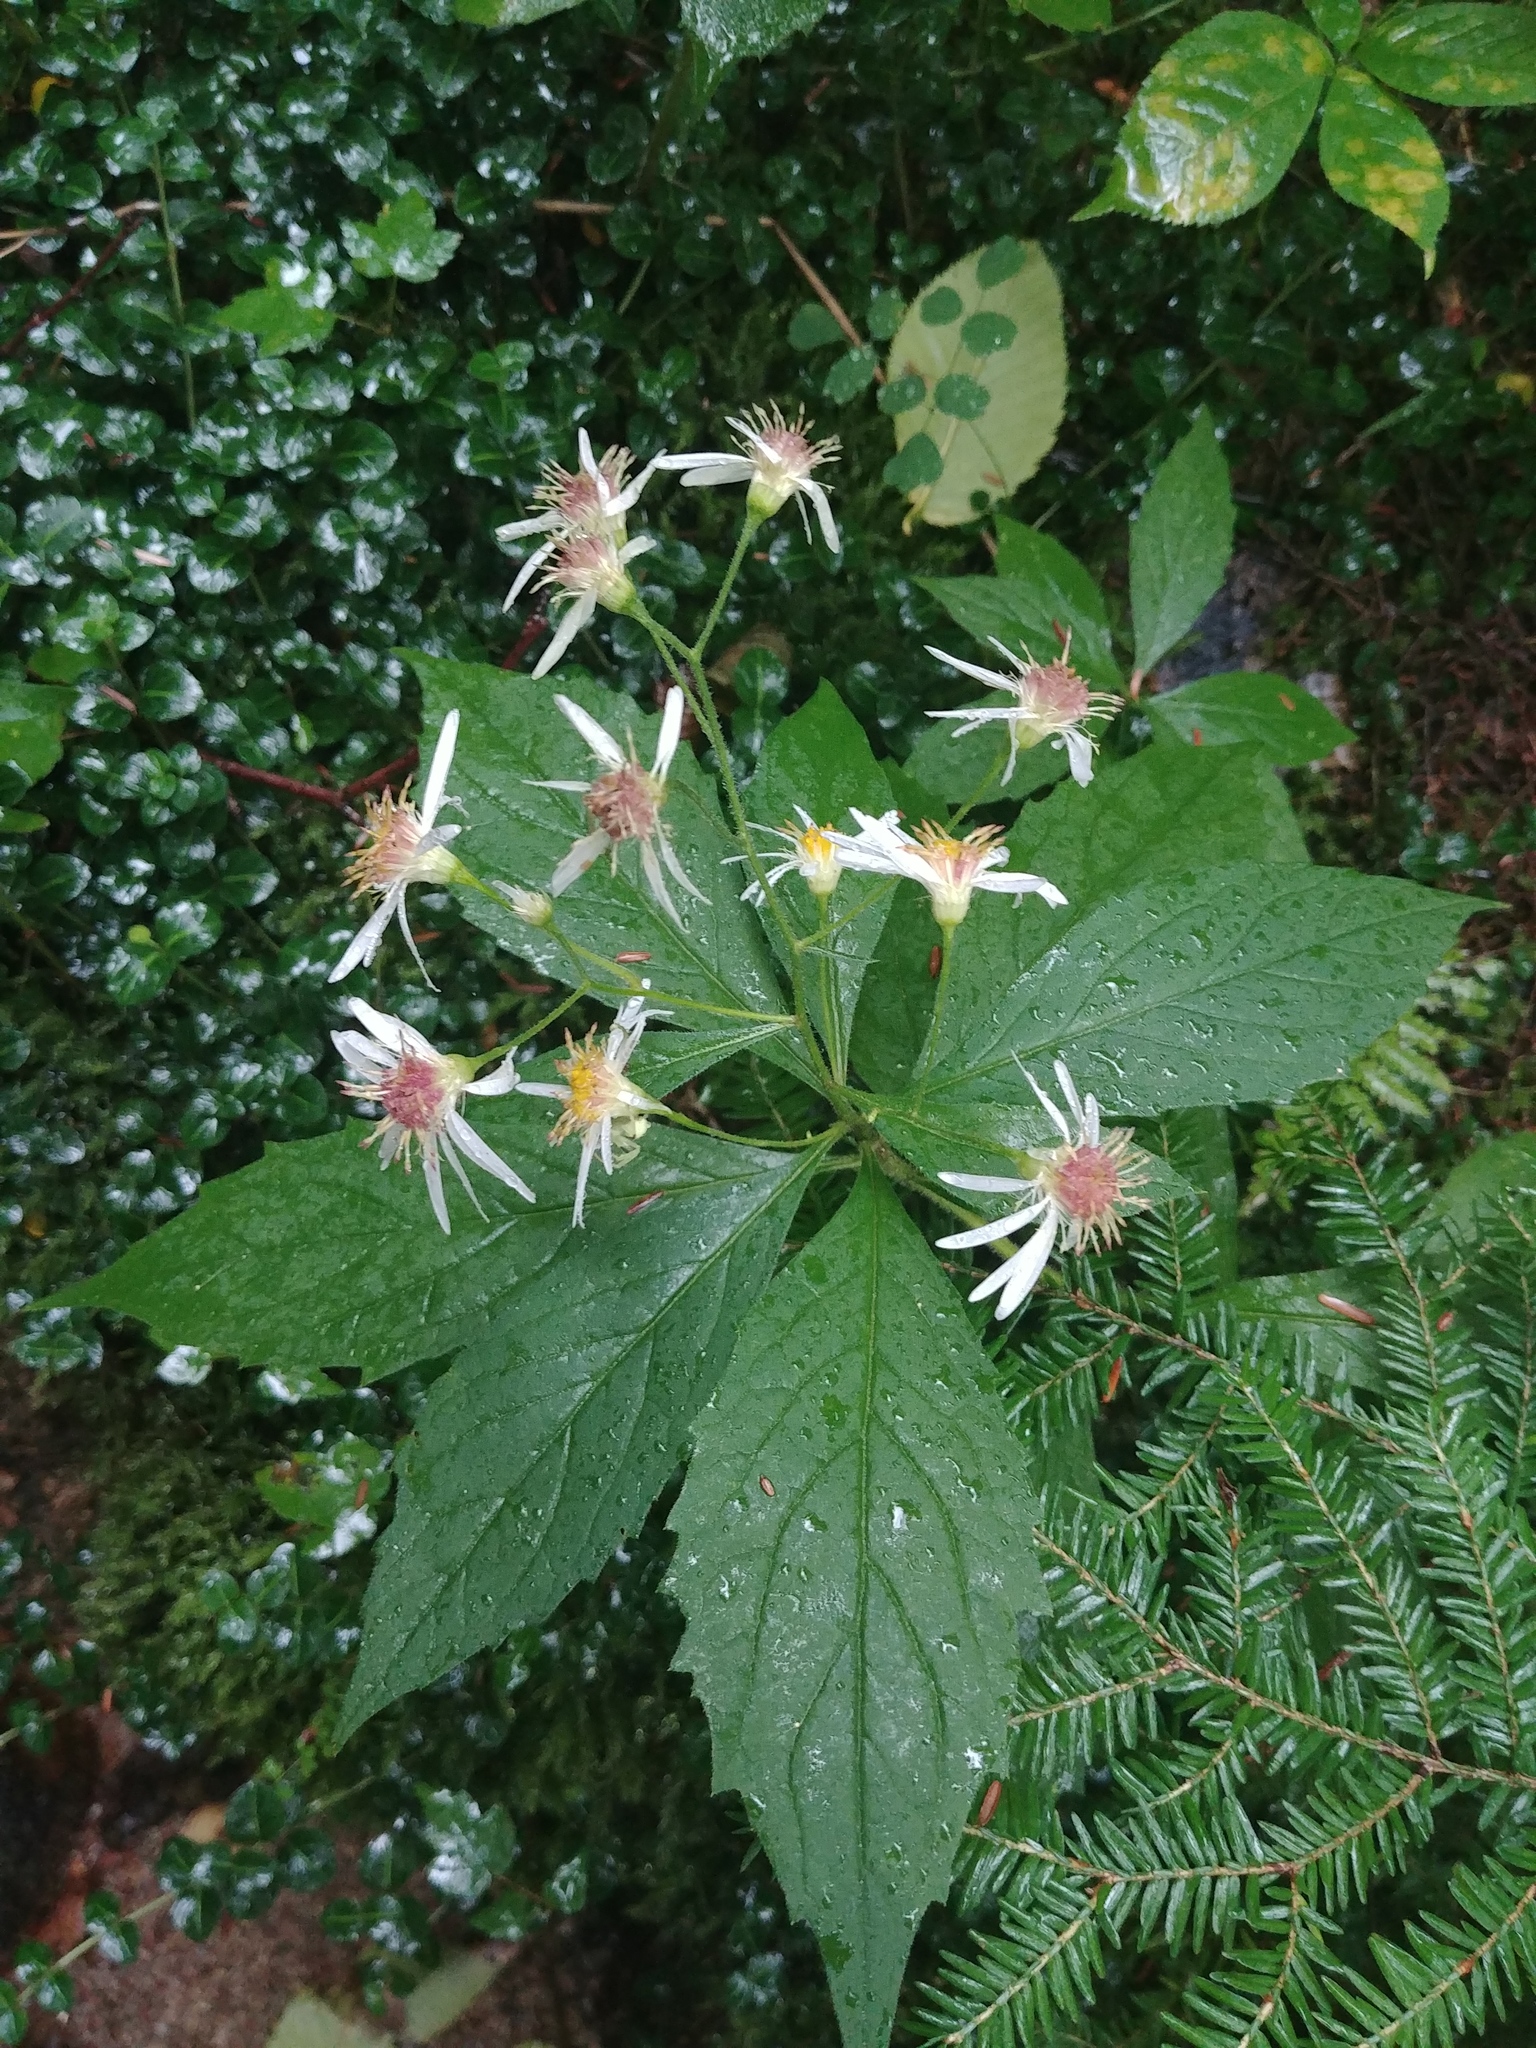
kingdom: Plantae
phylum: Tracheophyta
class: Magnoliopsida
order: Asterales
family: Asteraceae
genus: Oclemena
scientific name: Oclemena acuminata
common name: Mountain aster
